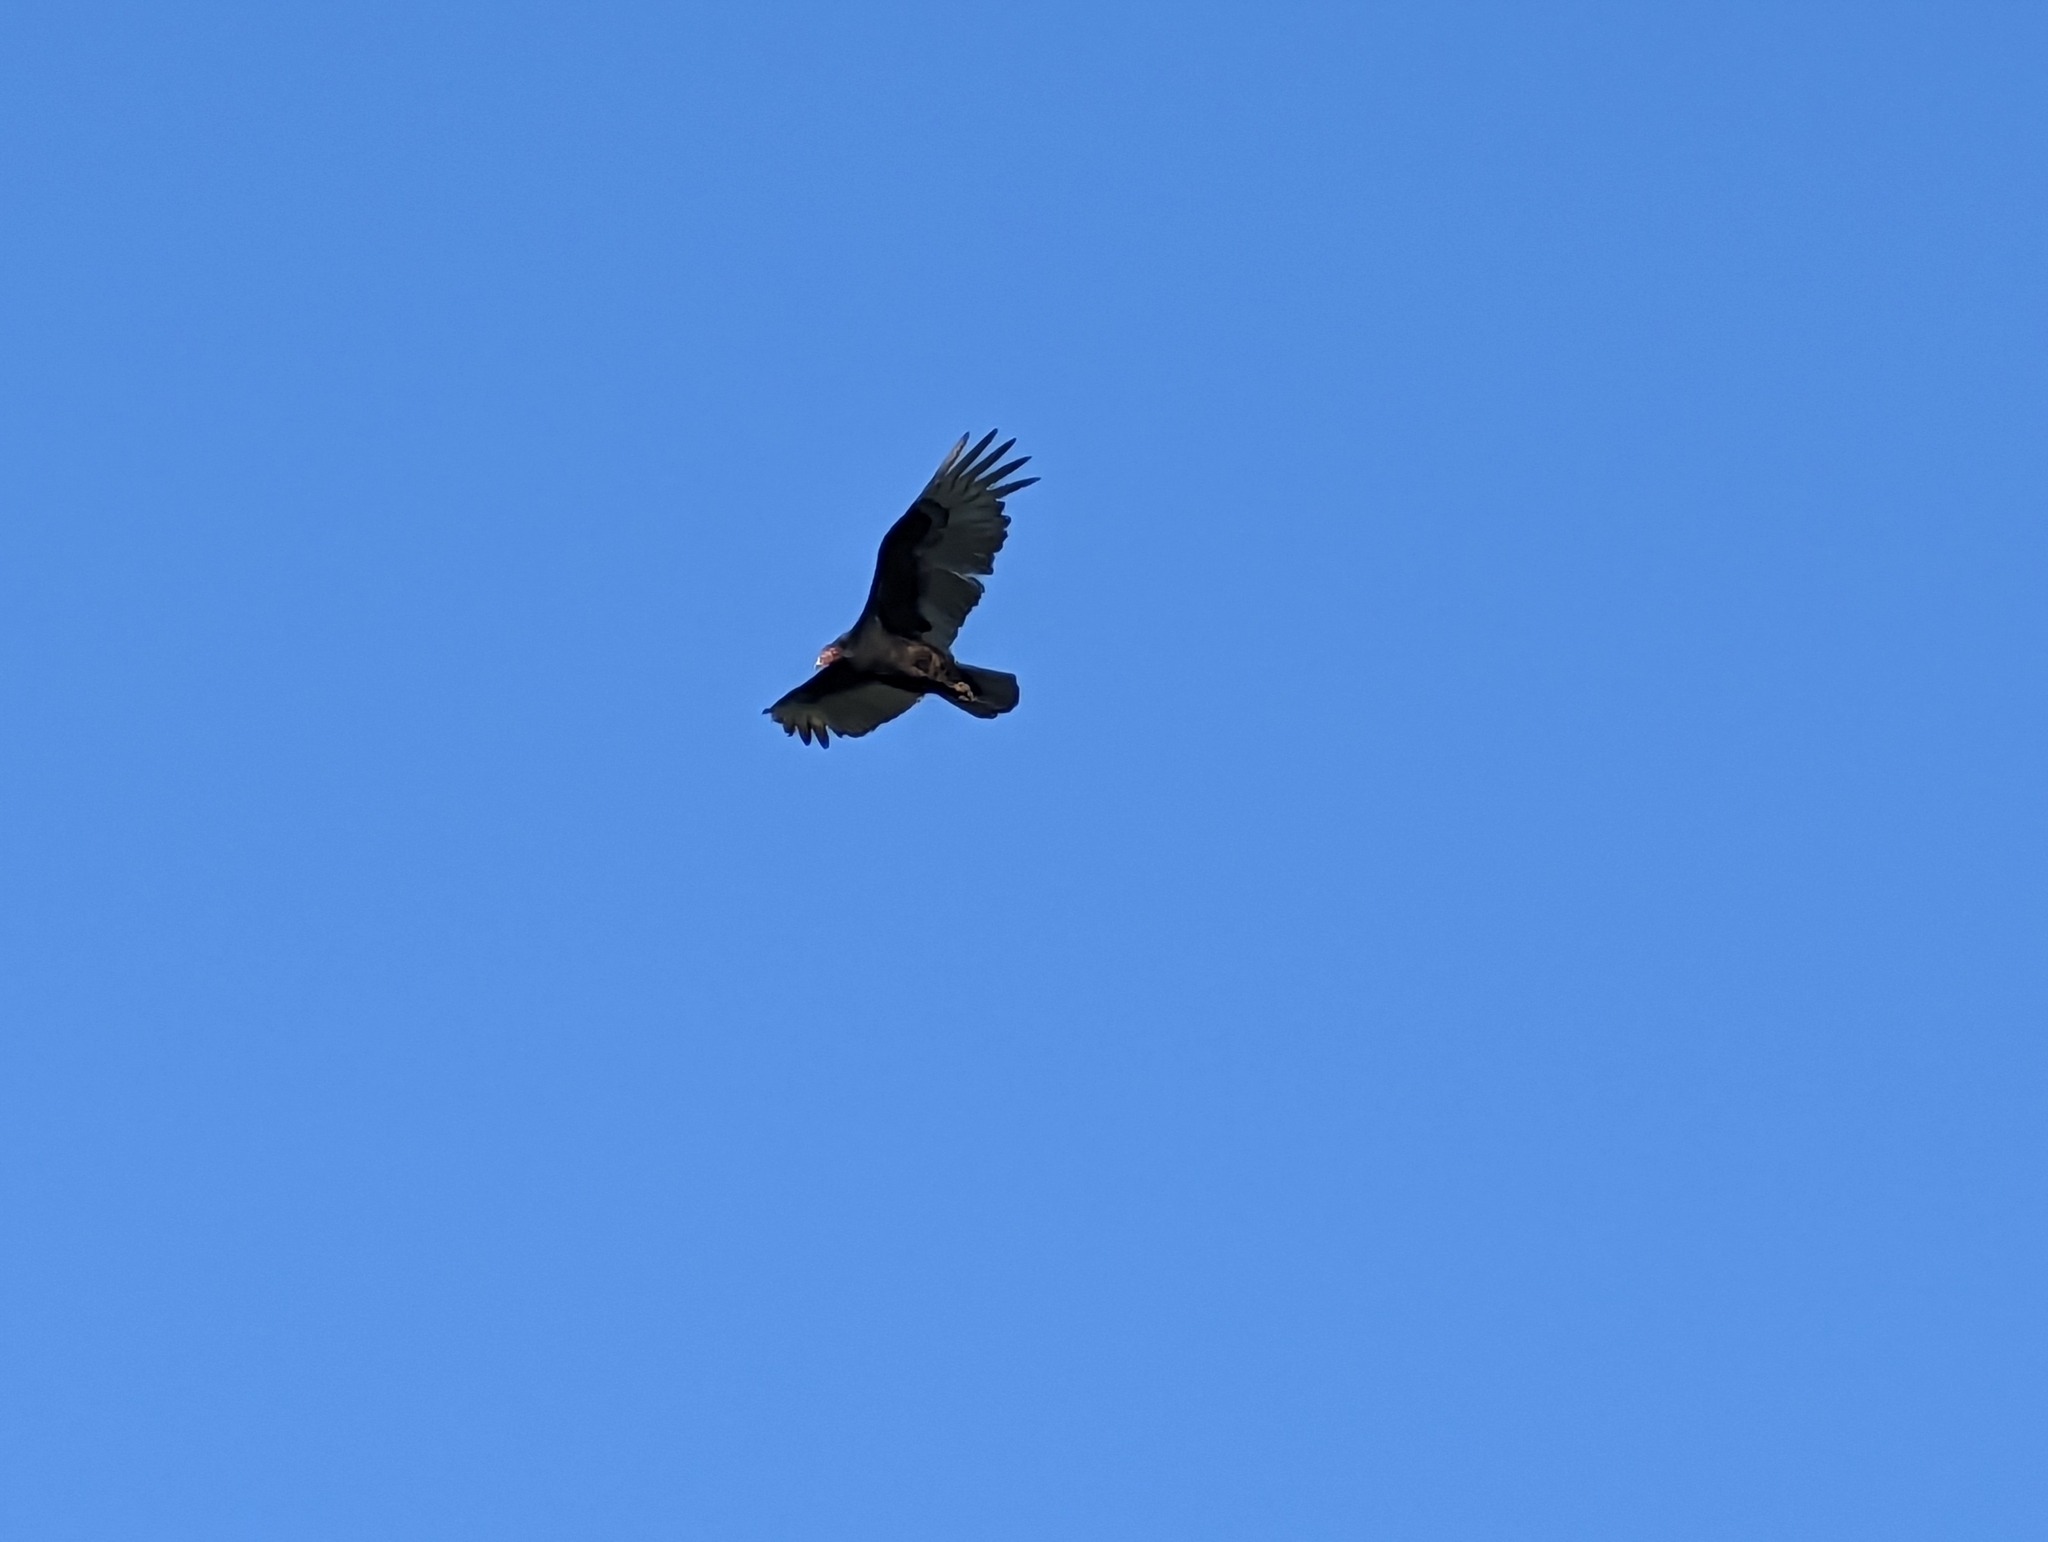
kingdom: Animalia
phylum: Chordata
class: Aves
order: Accipitriformes
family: Cathartidae
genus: Cathartes
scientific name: Cathartes aura
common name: Turkey vulture
